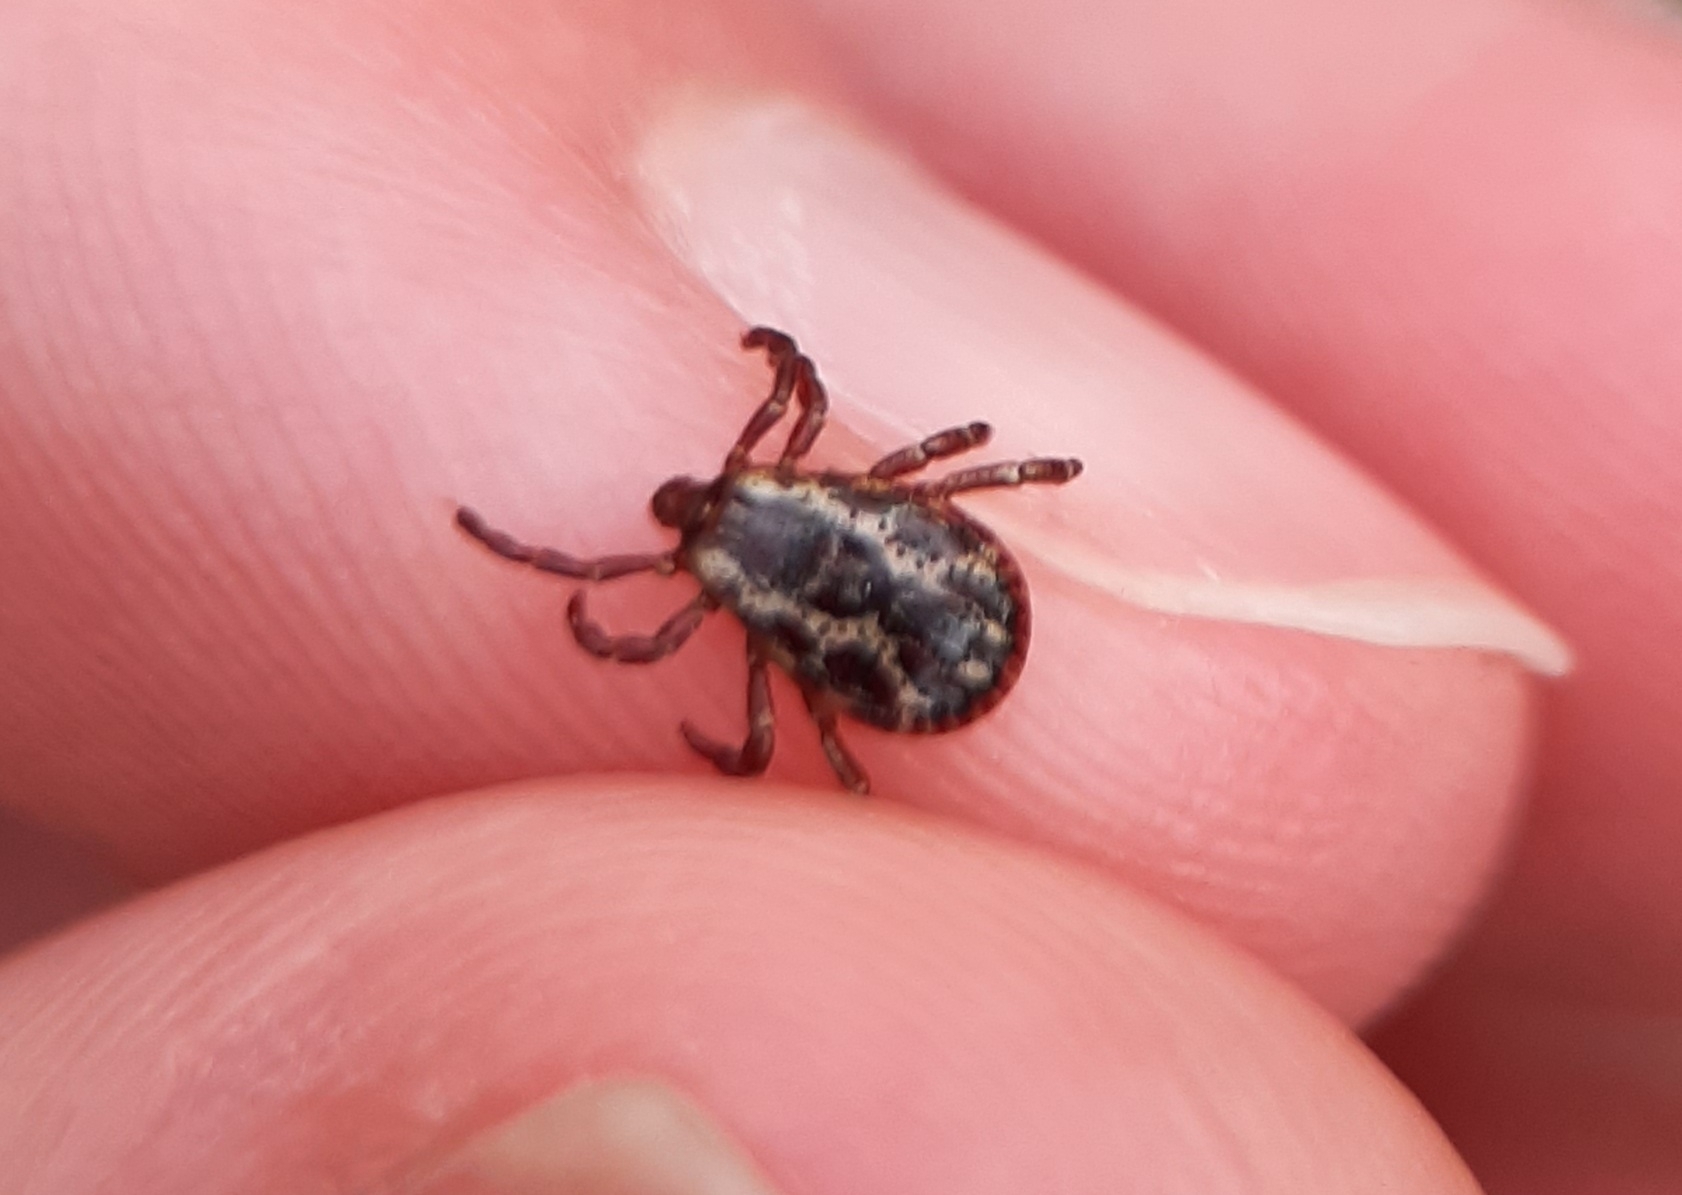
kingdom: Animalia
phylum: Arthropoda
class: Arachnida
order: Ixodida
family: Ixodidae
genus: Dermacentor
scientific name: Dermacentor variabilis
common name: American dog tick
